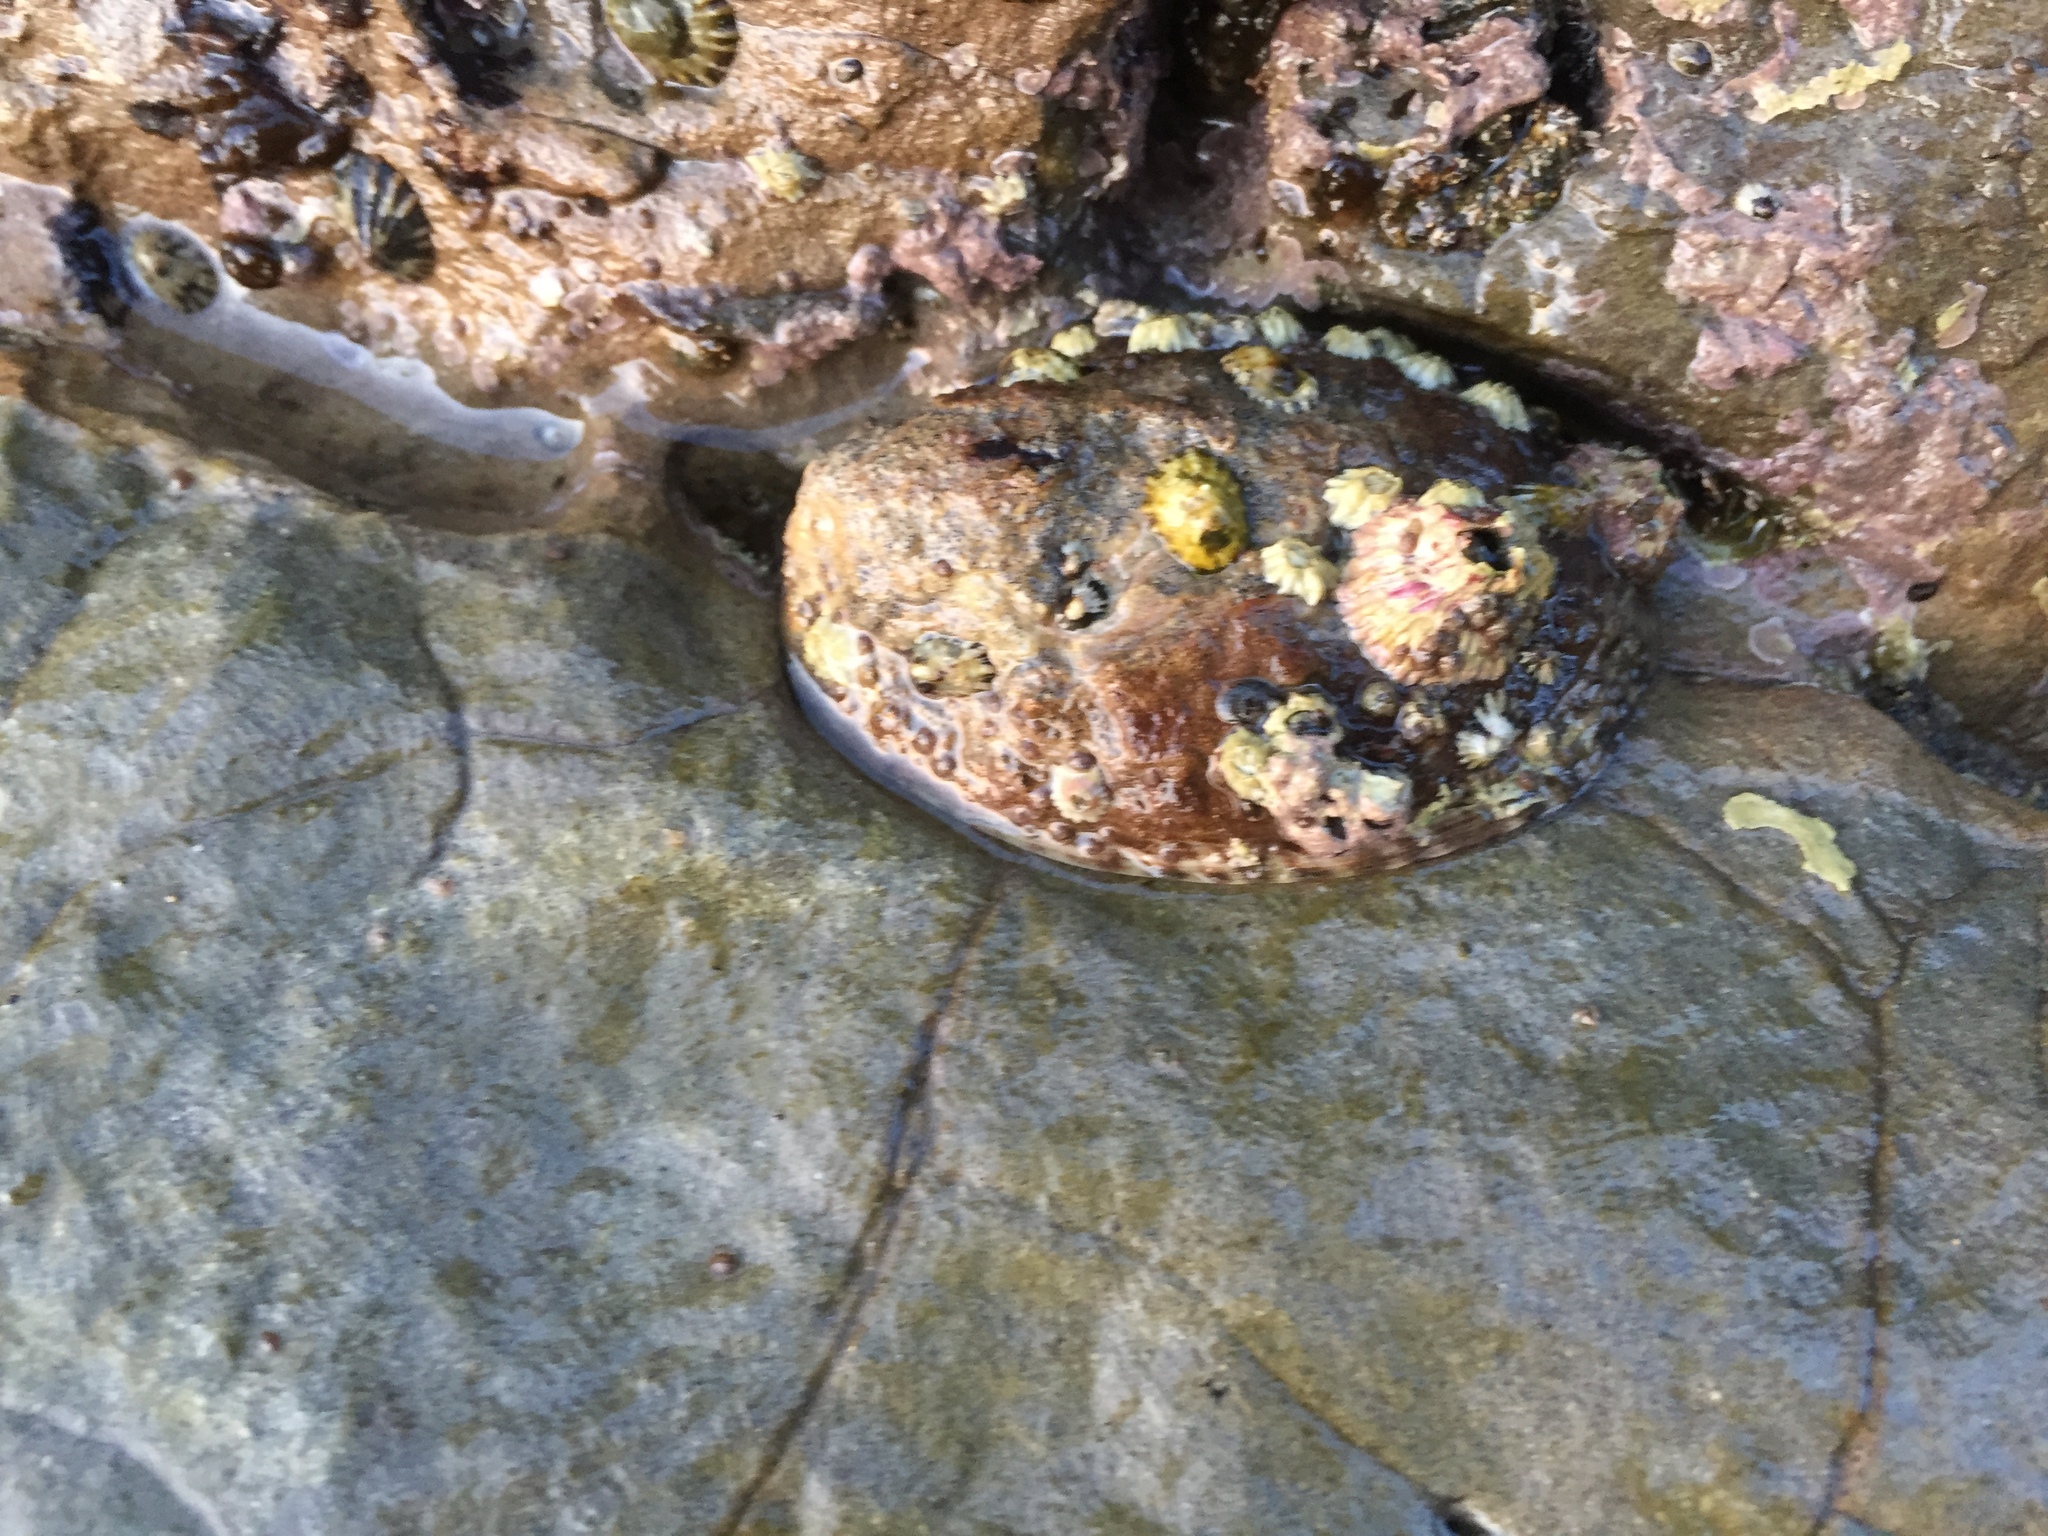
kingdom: Animalia
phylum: Mollusca
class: Gastropoda
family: Lottiidae
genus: Lottia
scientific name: Lottia gigantea
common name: Owl limpet
